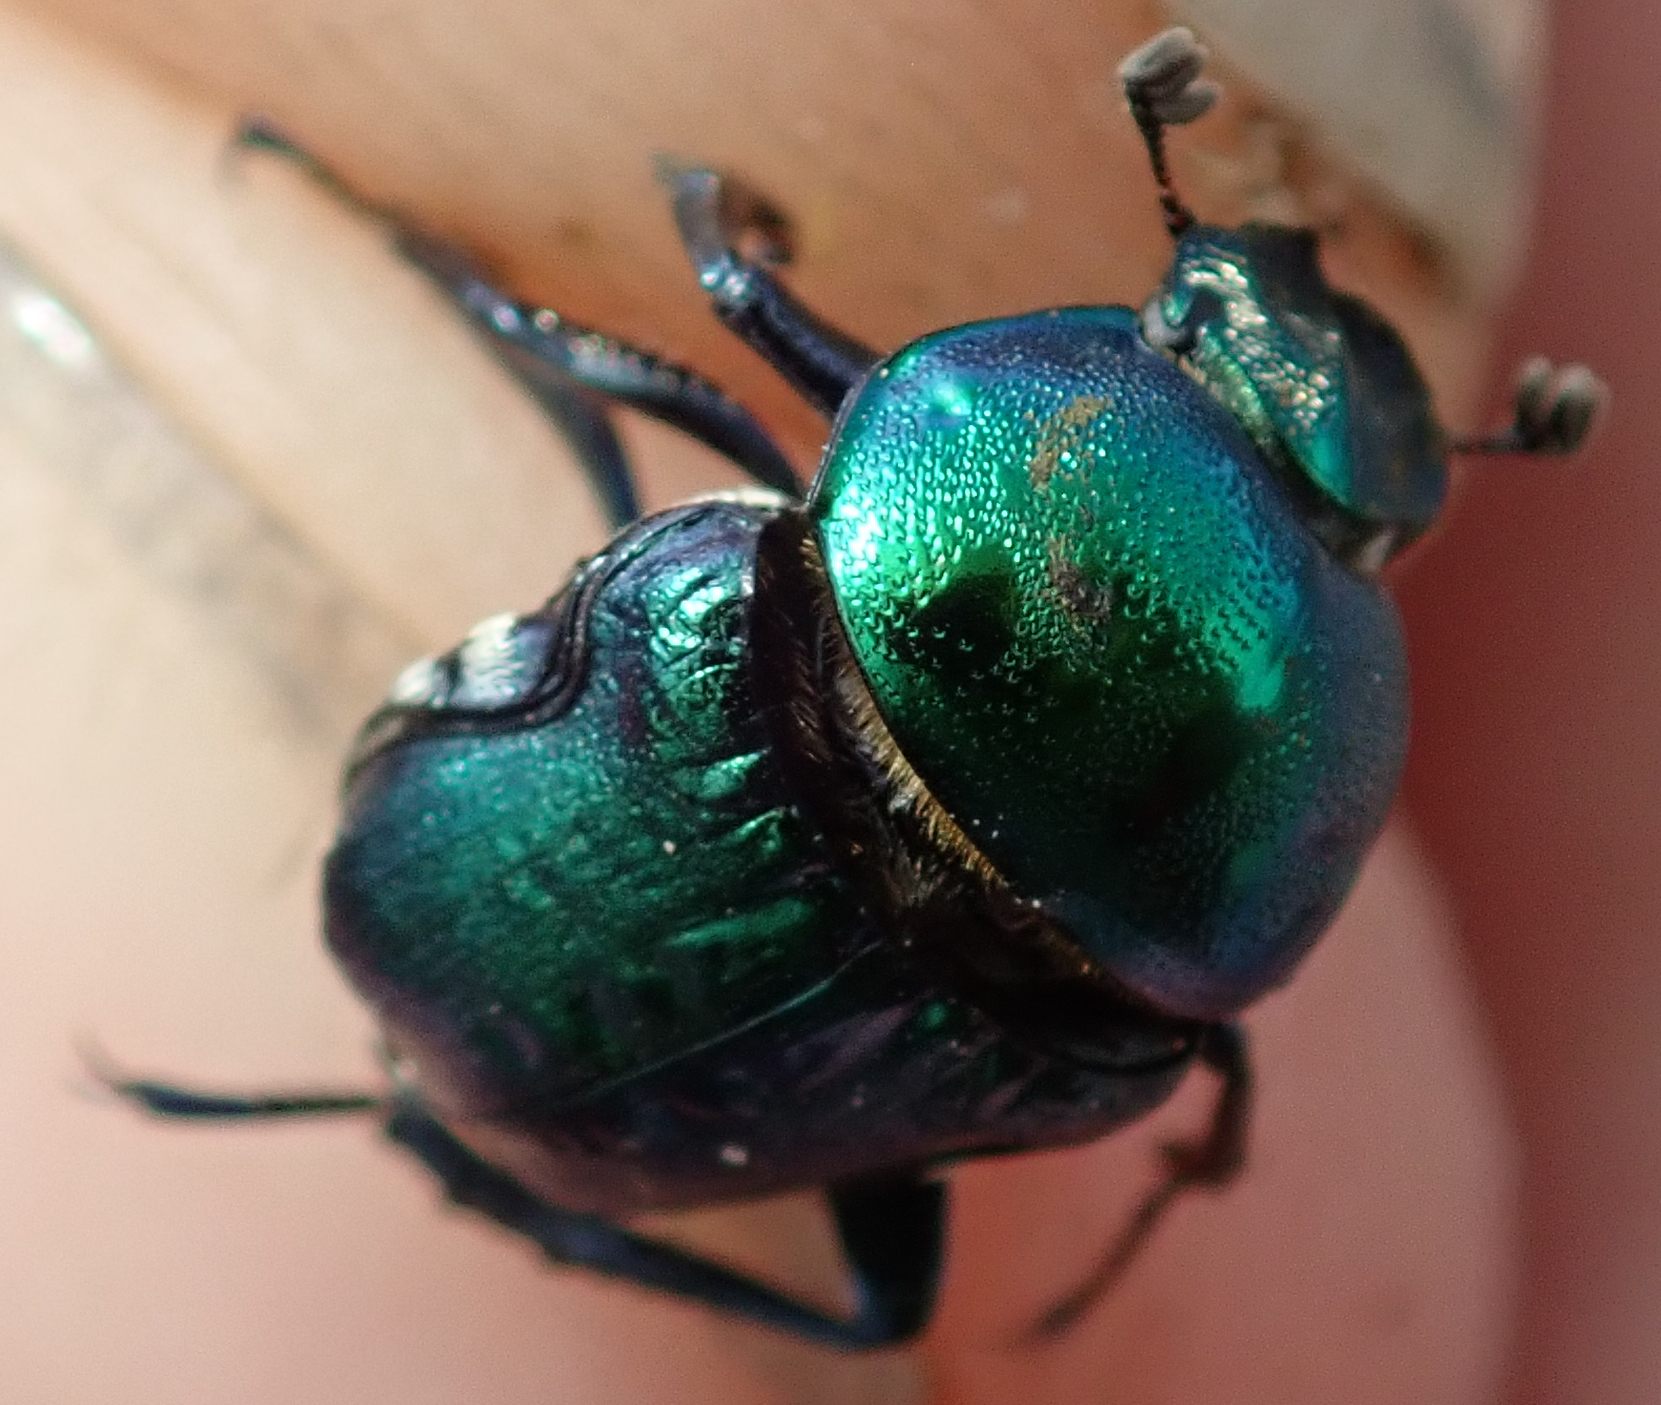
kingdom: Animalia
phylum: Arthropoda
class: Insecta
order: Coleoptera
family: Scarabaeidae
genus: Gymnopleurus
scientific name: Gymnopleurus virens
